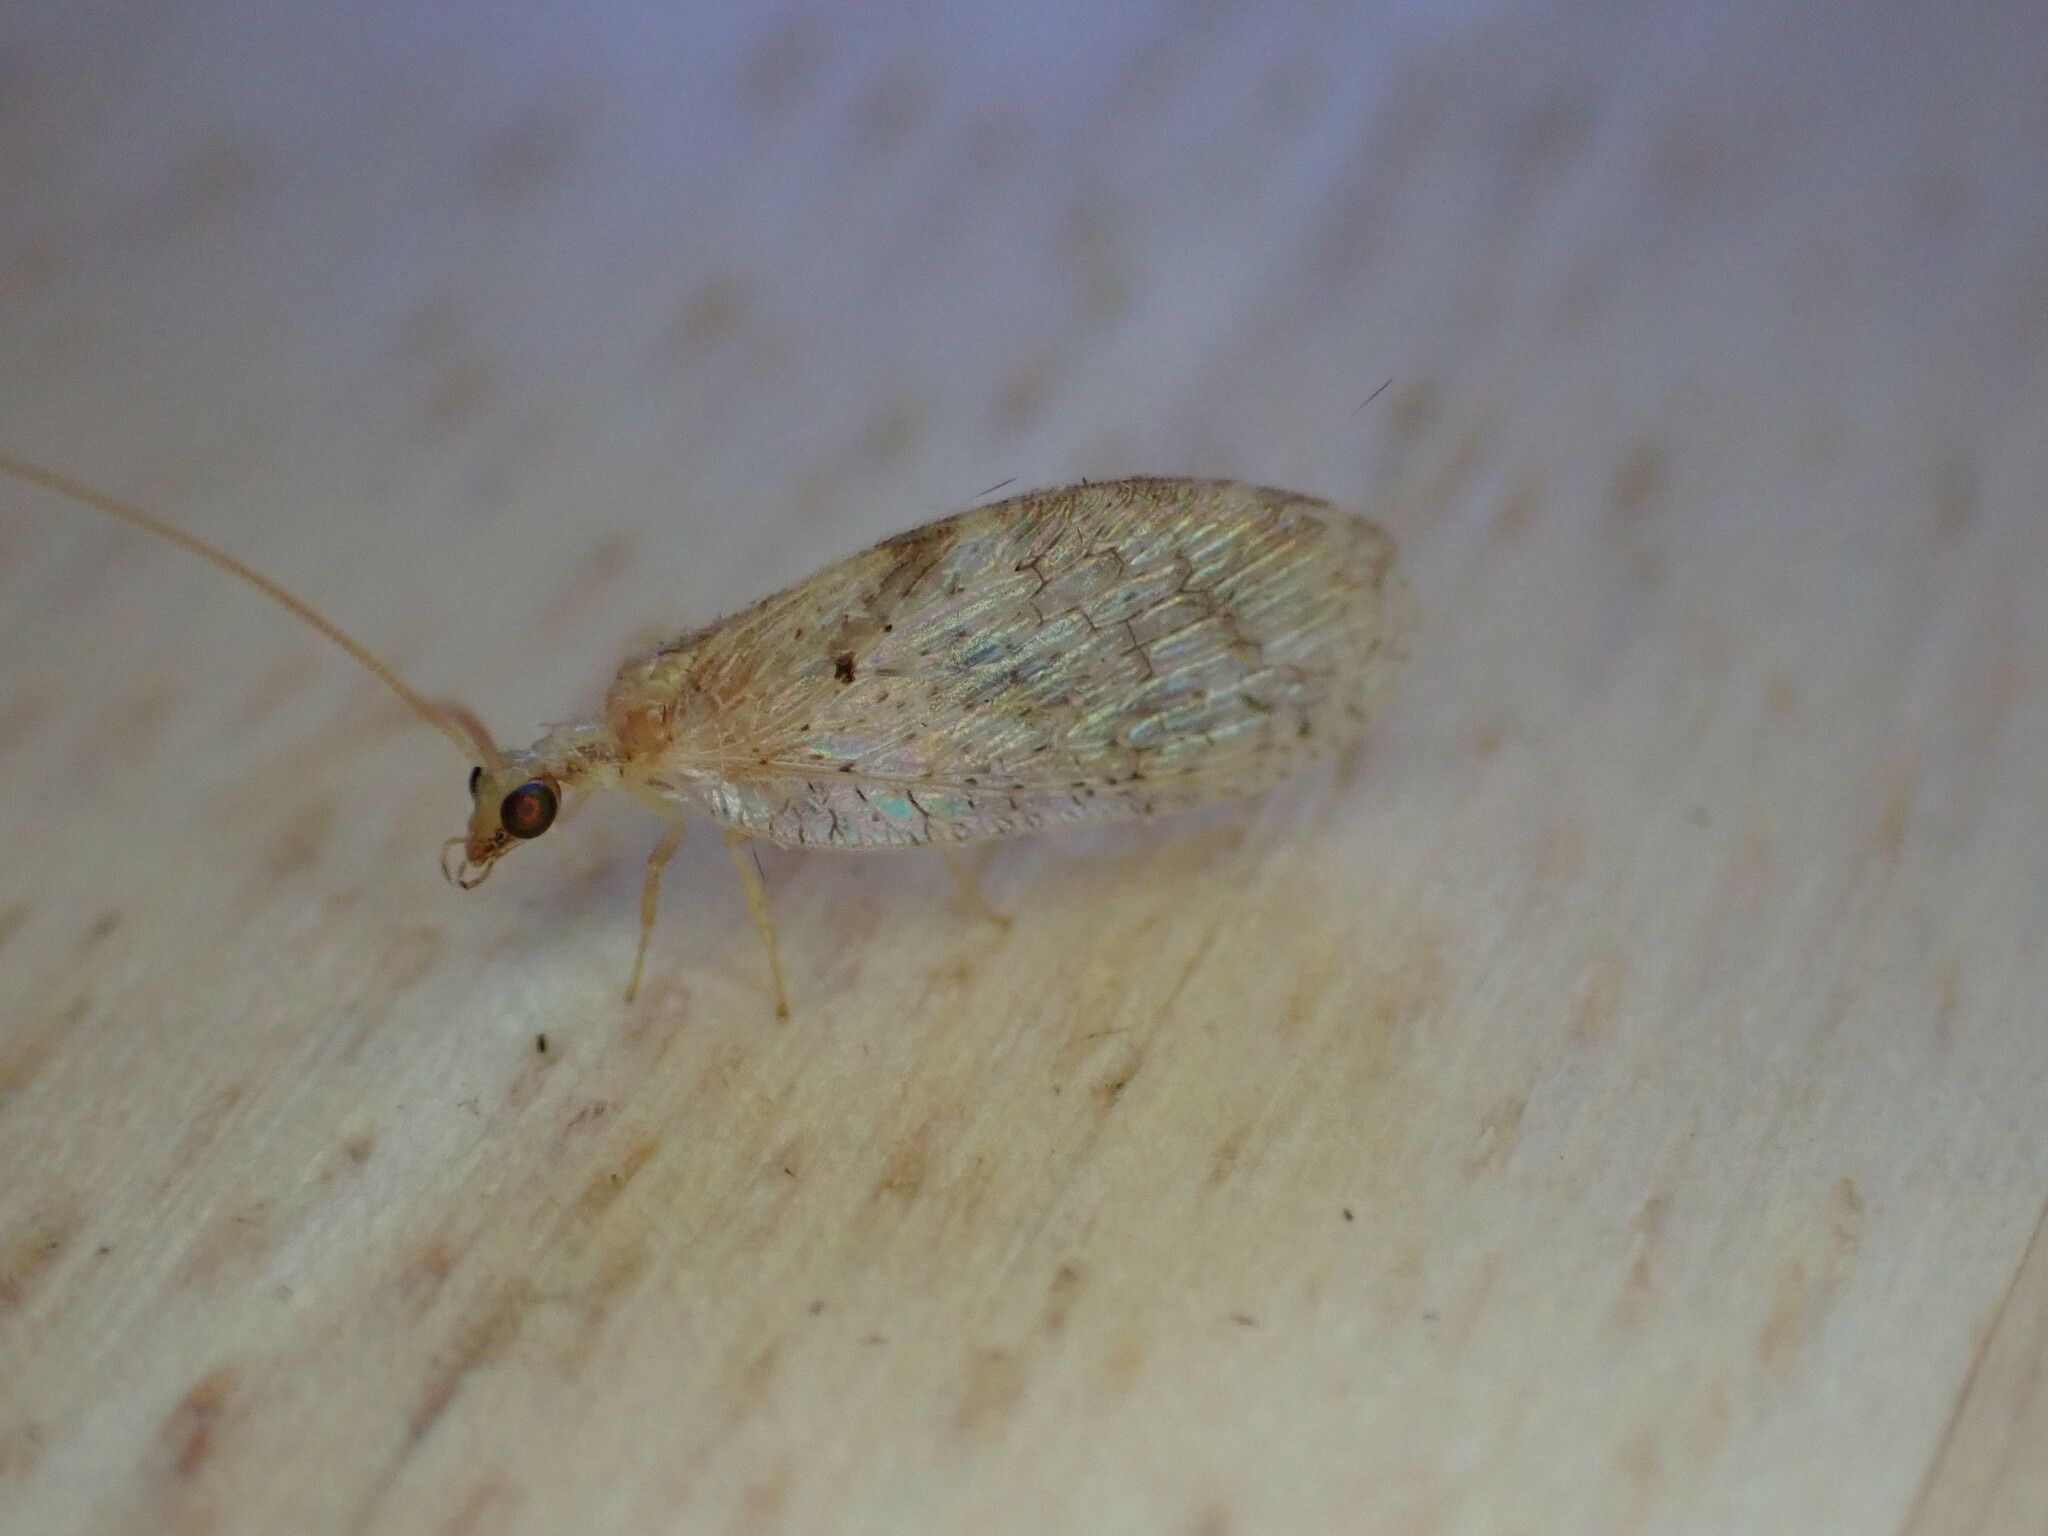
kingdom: Animalia
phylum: Arthropoda
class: Insecta
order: Neuroptera
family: Hemerobiidae
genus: Hemerobius
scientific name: Hemerobius lutescens
